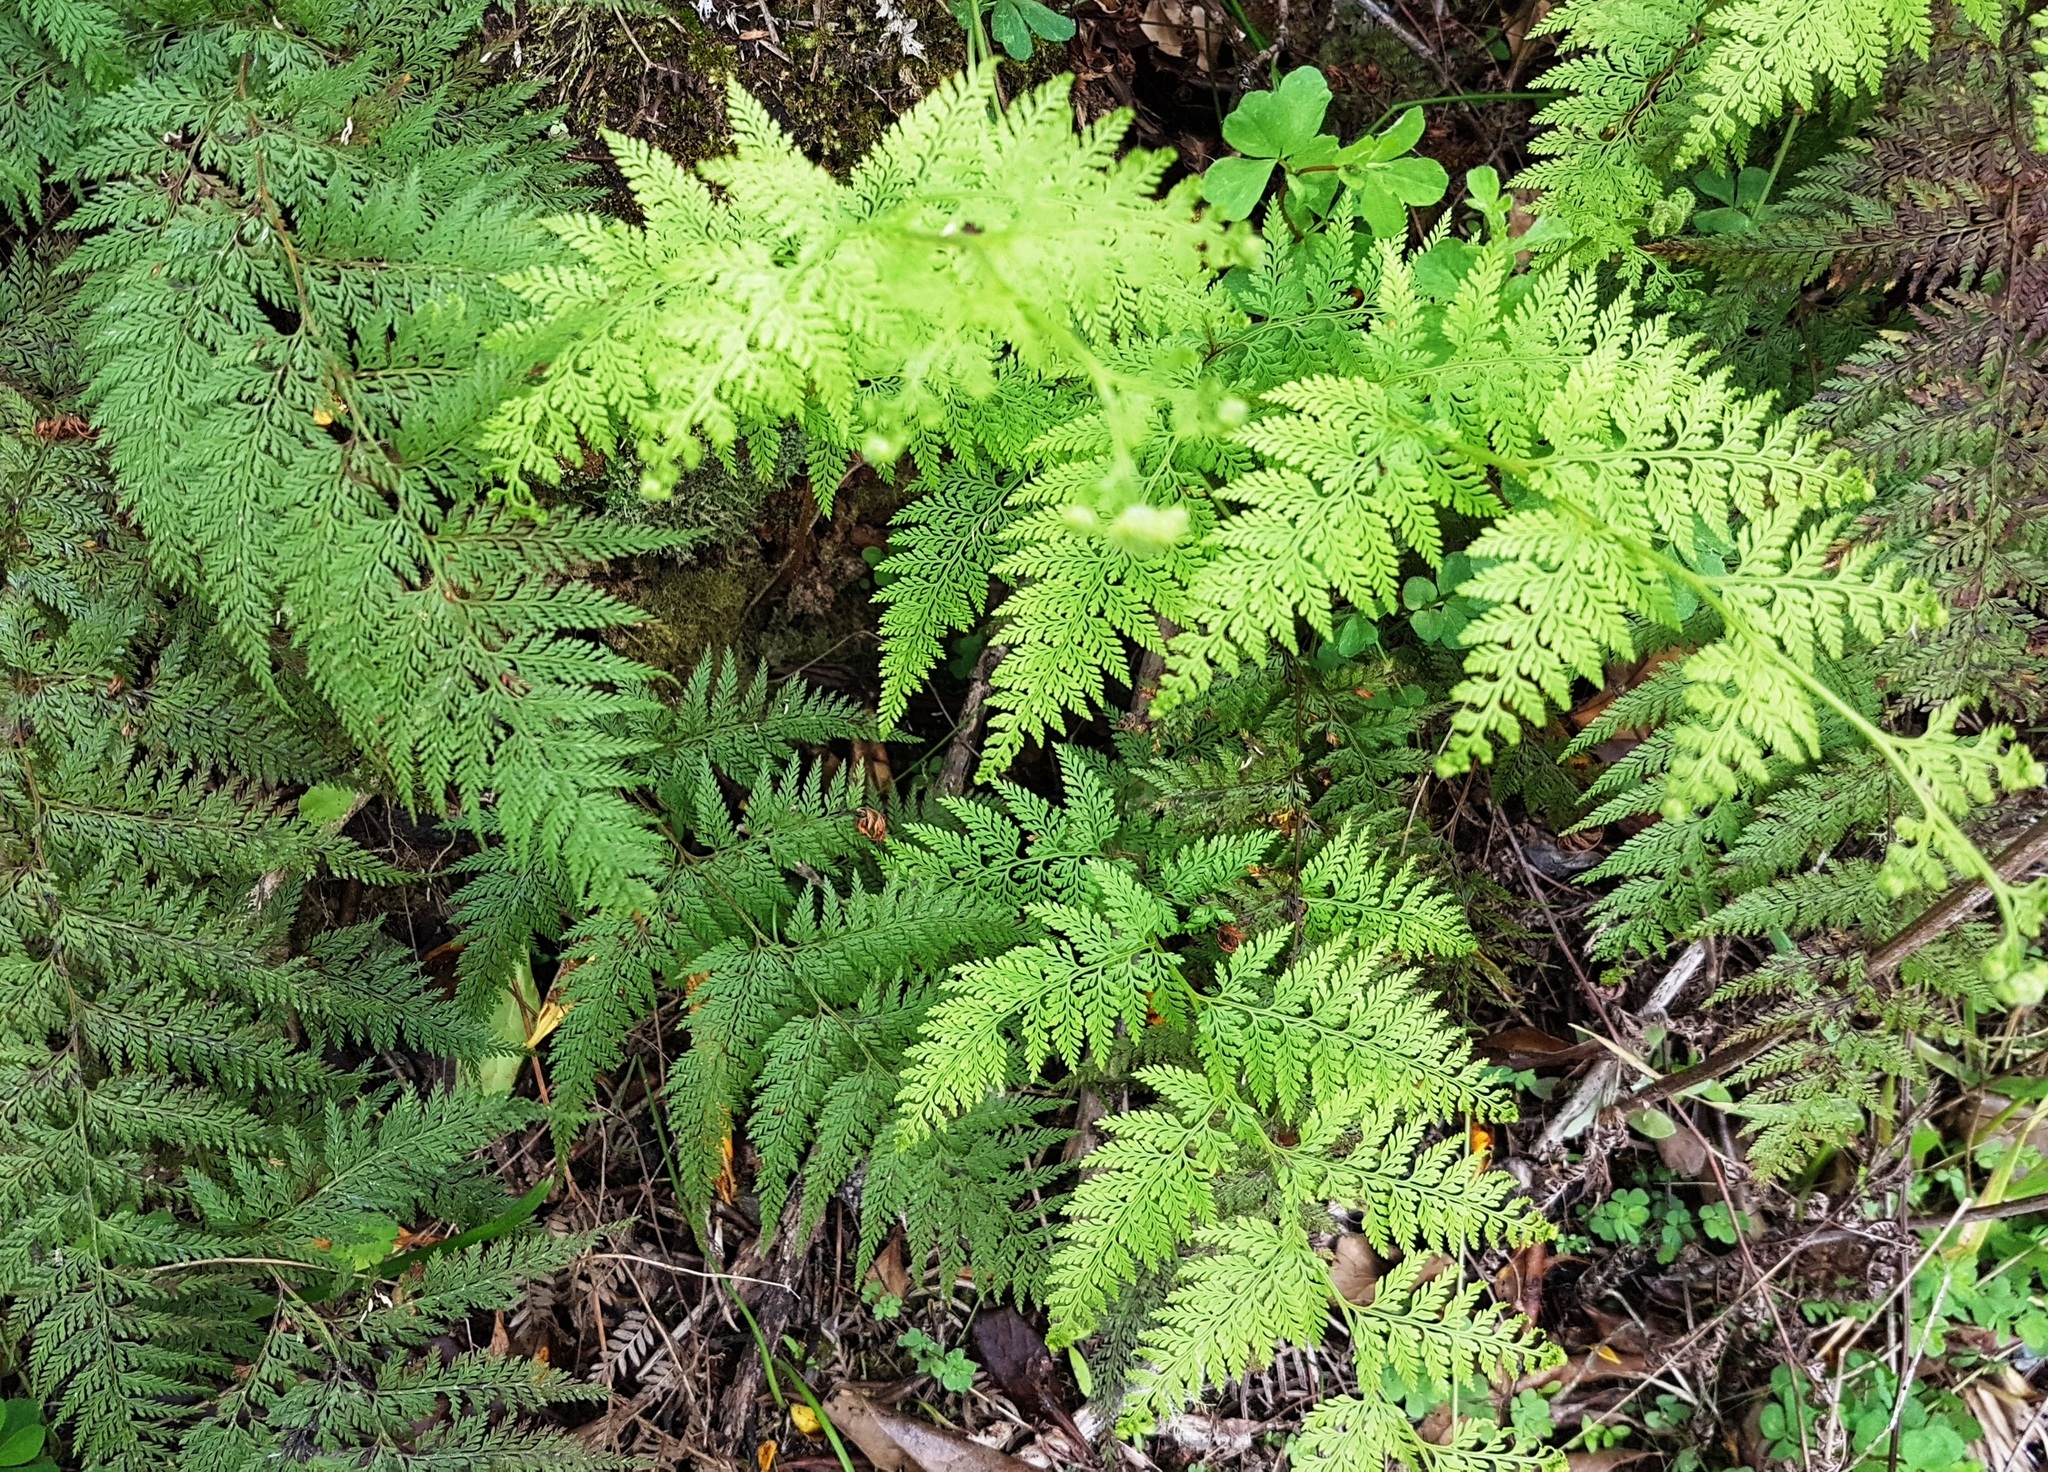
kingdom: Plantae
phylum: Tracheophyta
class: Polypodiopsida
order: Polypodiales
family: Dennstaedtiaceae
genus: Paesia
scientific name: Paesia scaberula
